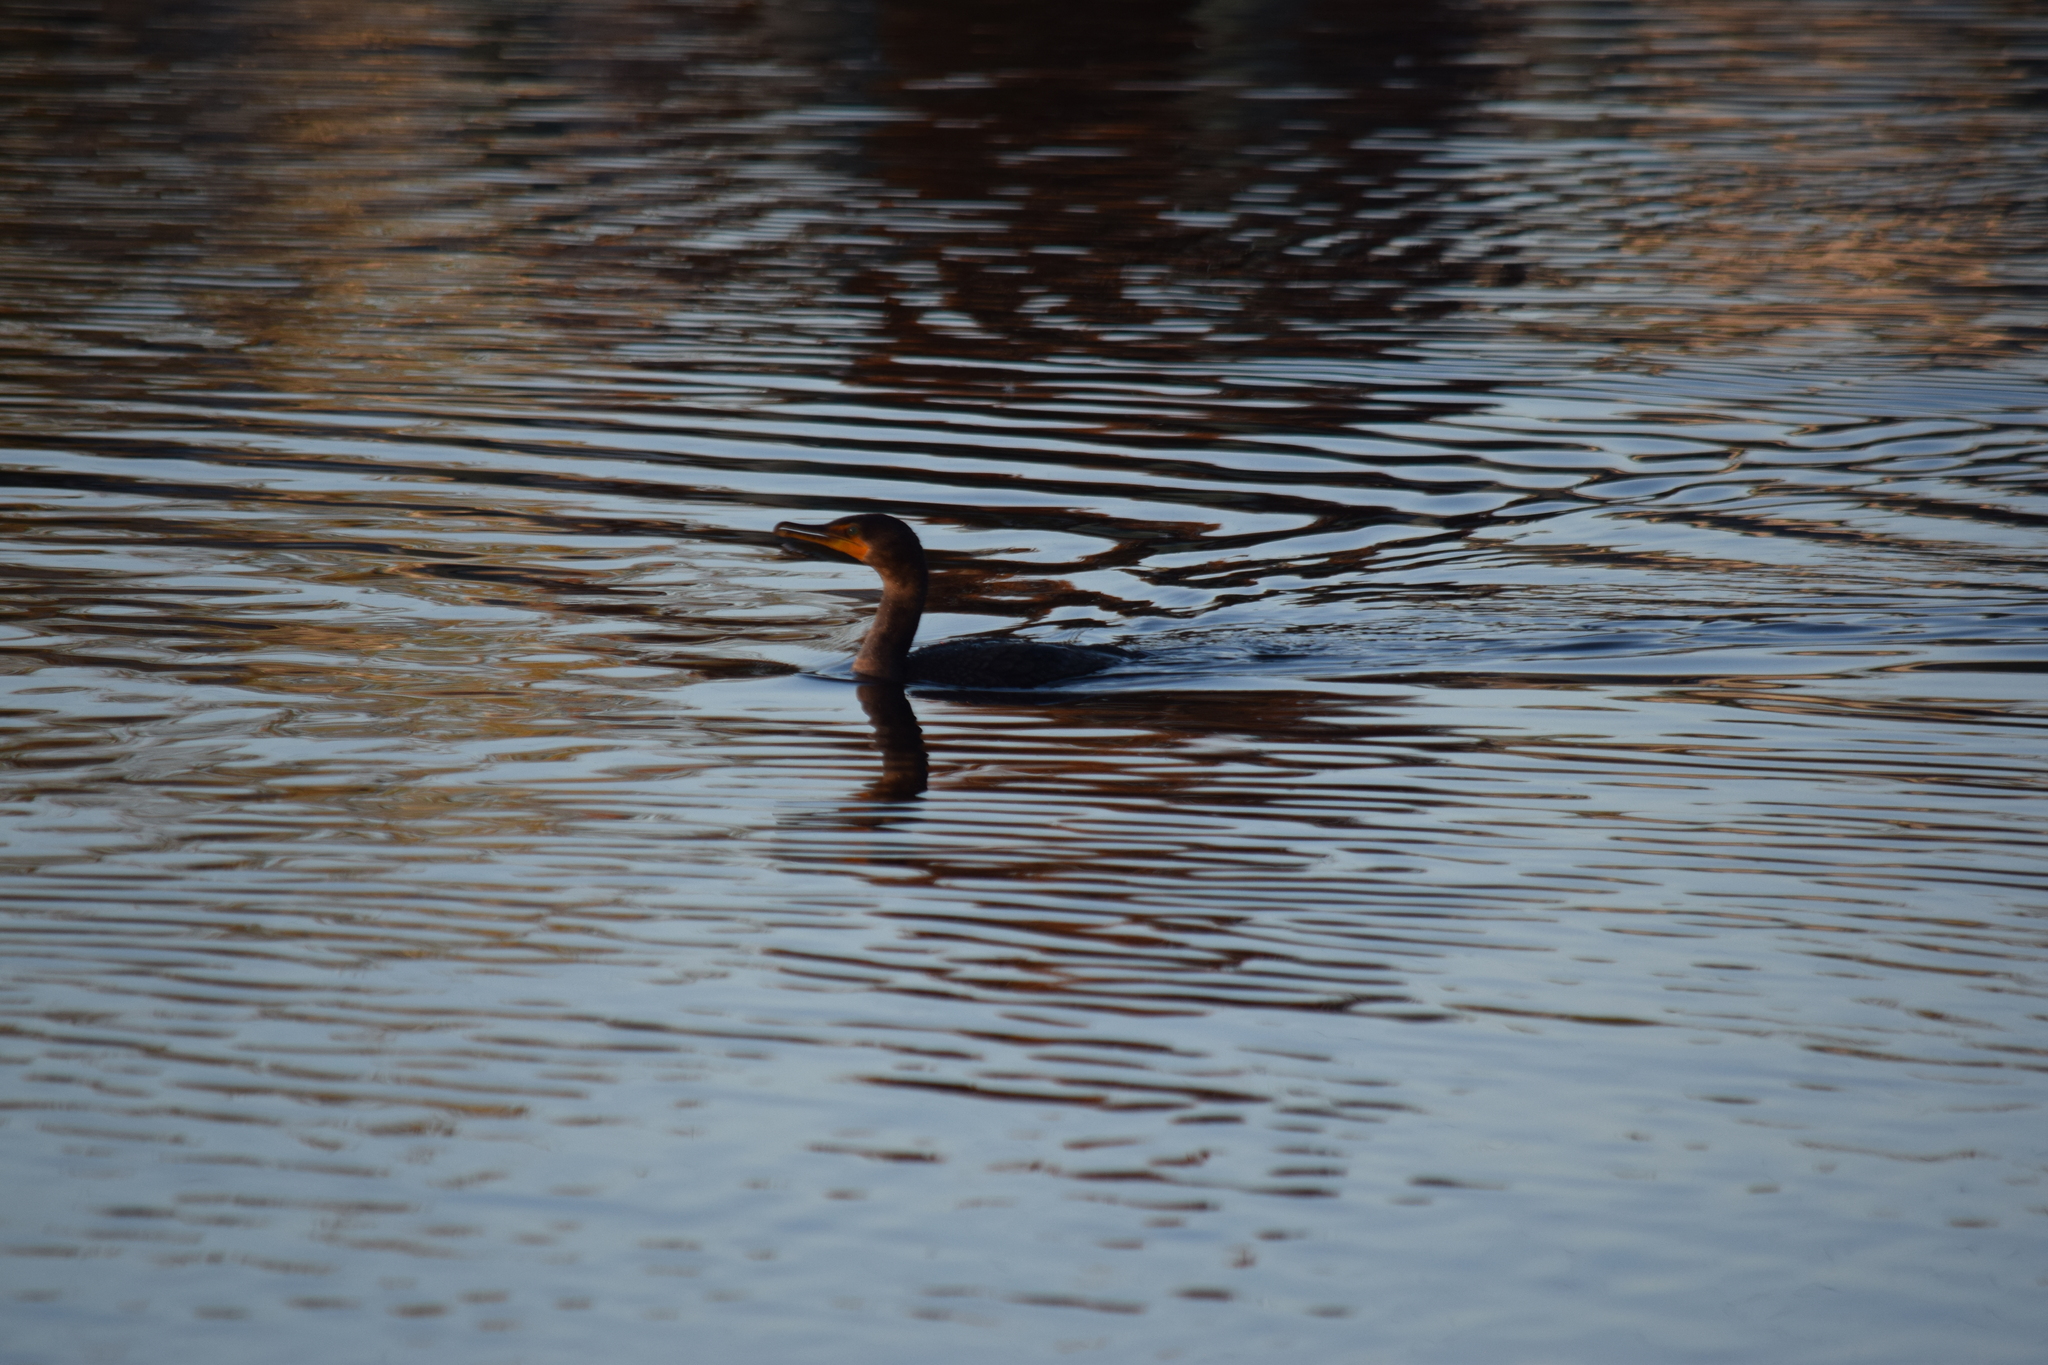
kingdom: Animalia
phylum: Chordata
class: Aves
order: Suliformes
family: Phalacrocoracidae
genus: Phalacrocorax
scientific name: Phalacrocorax auritus
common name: Double-crested cormorant
